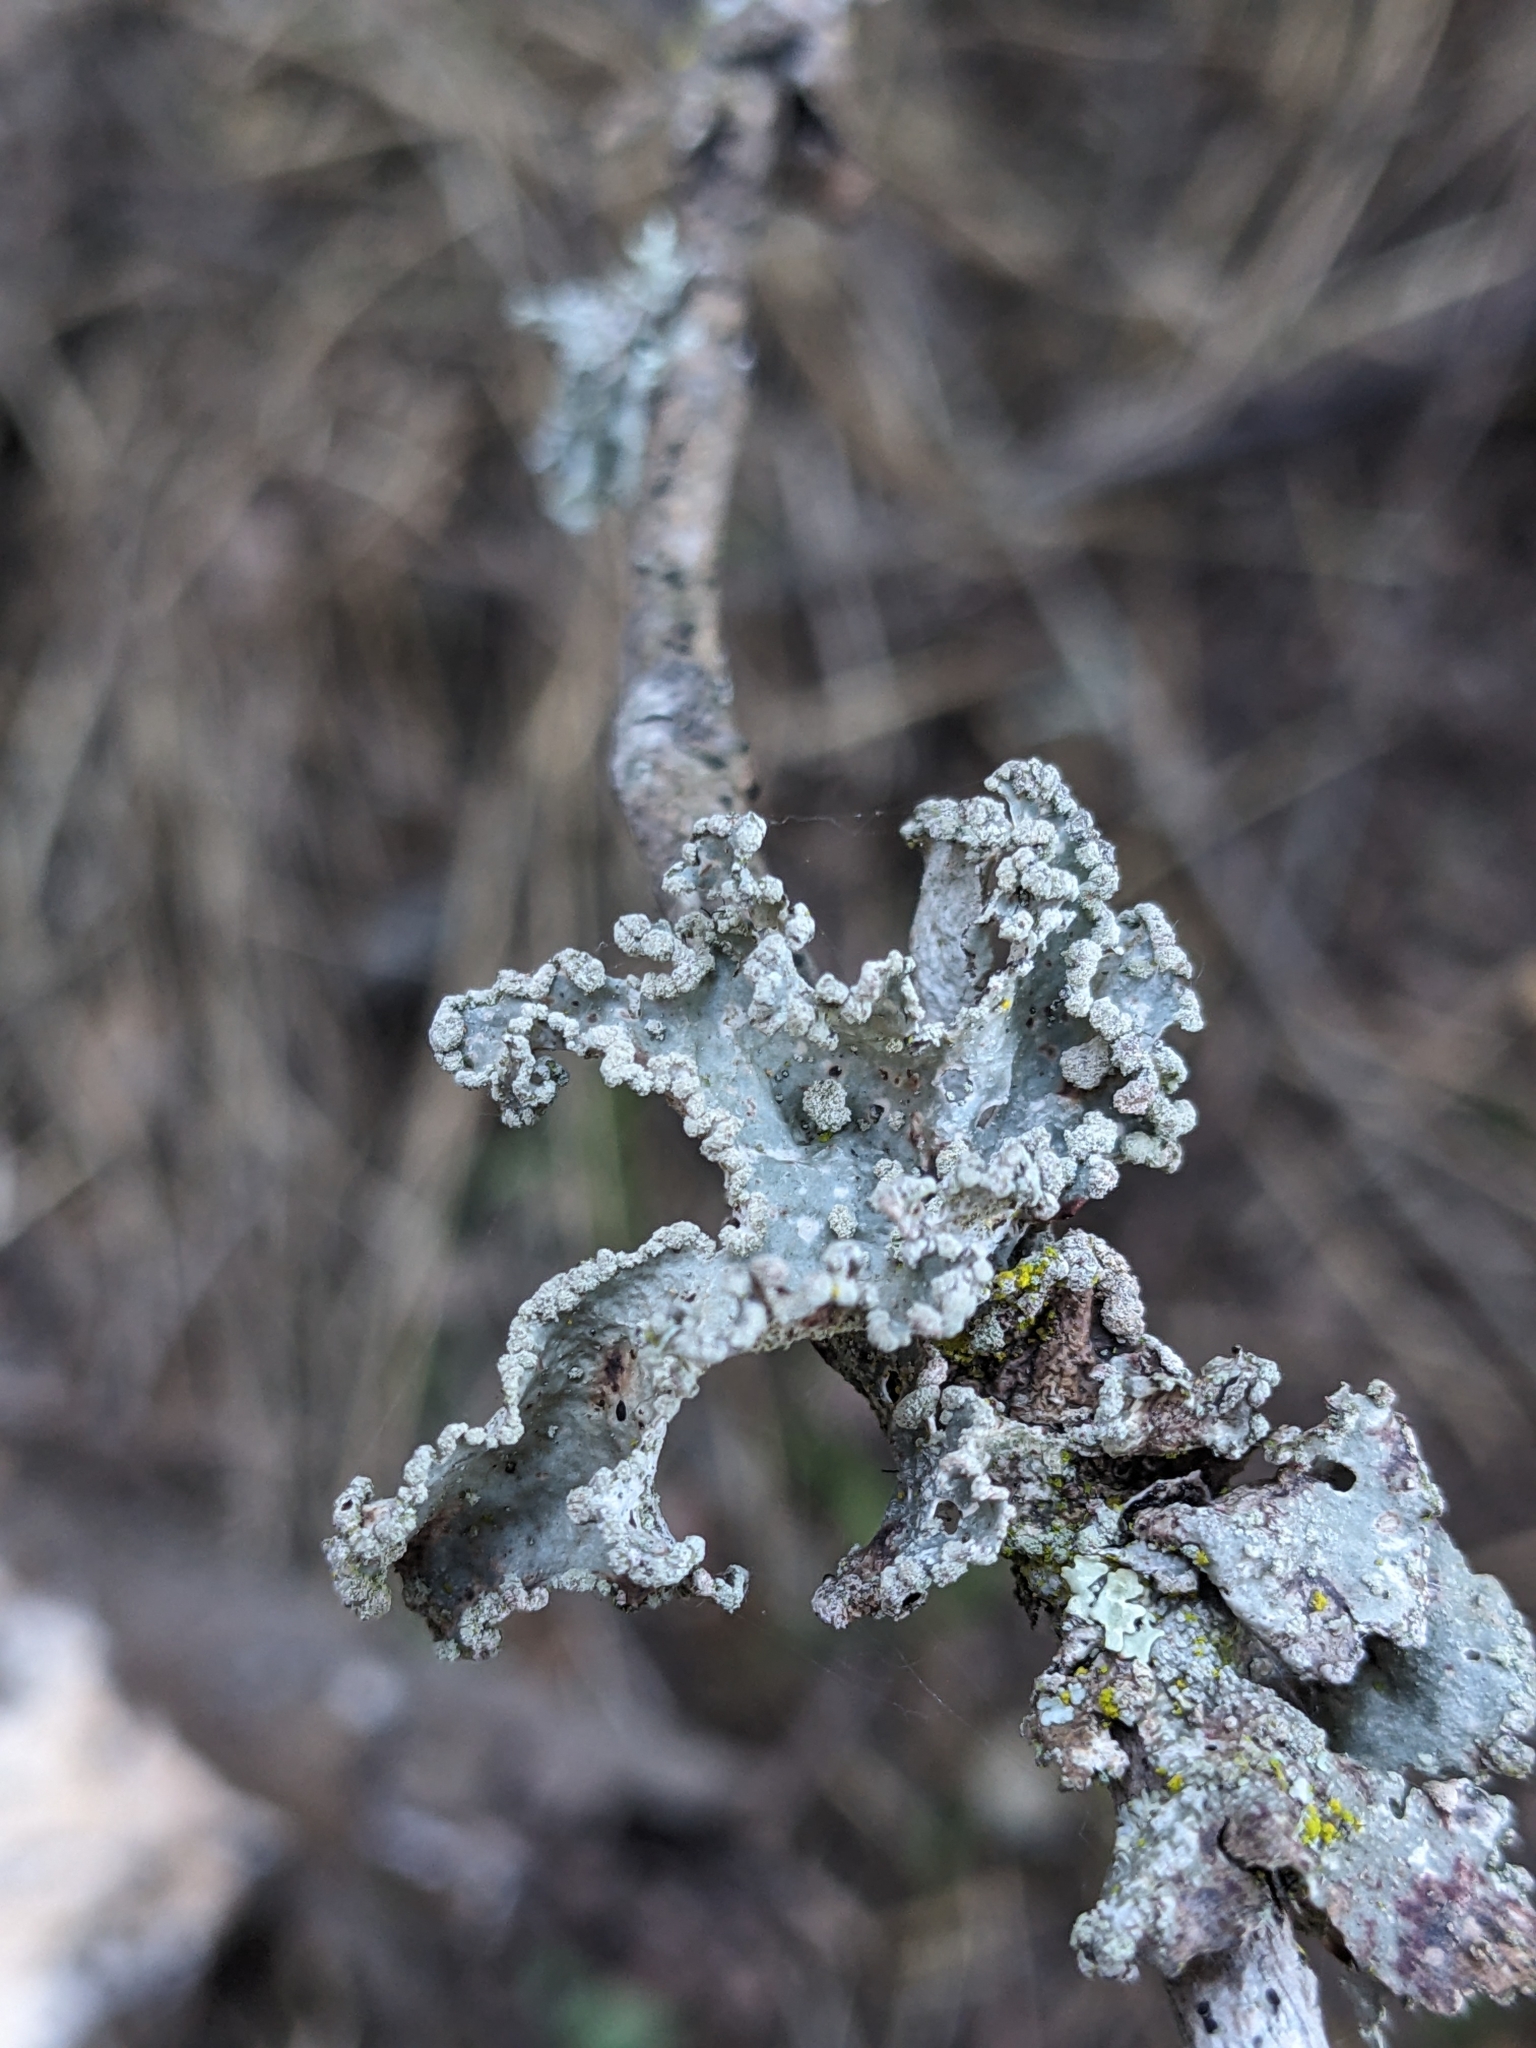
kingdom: Fungi
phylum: Ascomycota
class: Lecanoromycetes
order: Lecanorales
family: Parmeliaceae
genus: Parmotrema
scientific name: Parmotrema reticulatum
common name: Black sheet lichen
